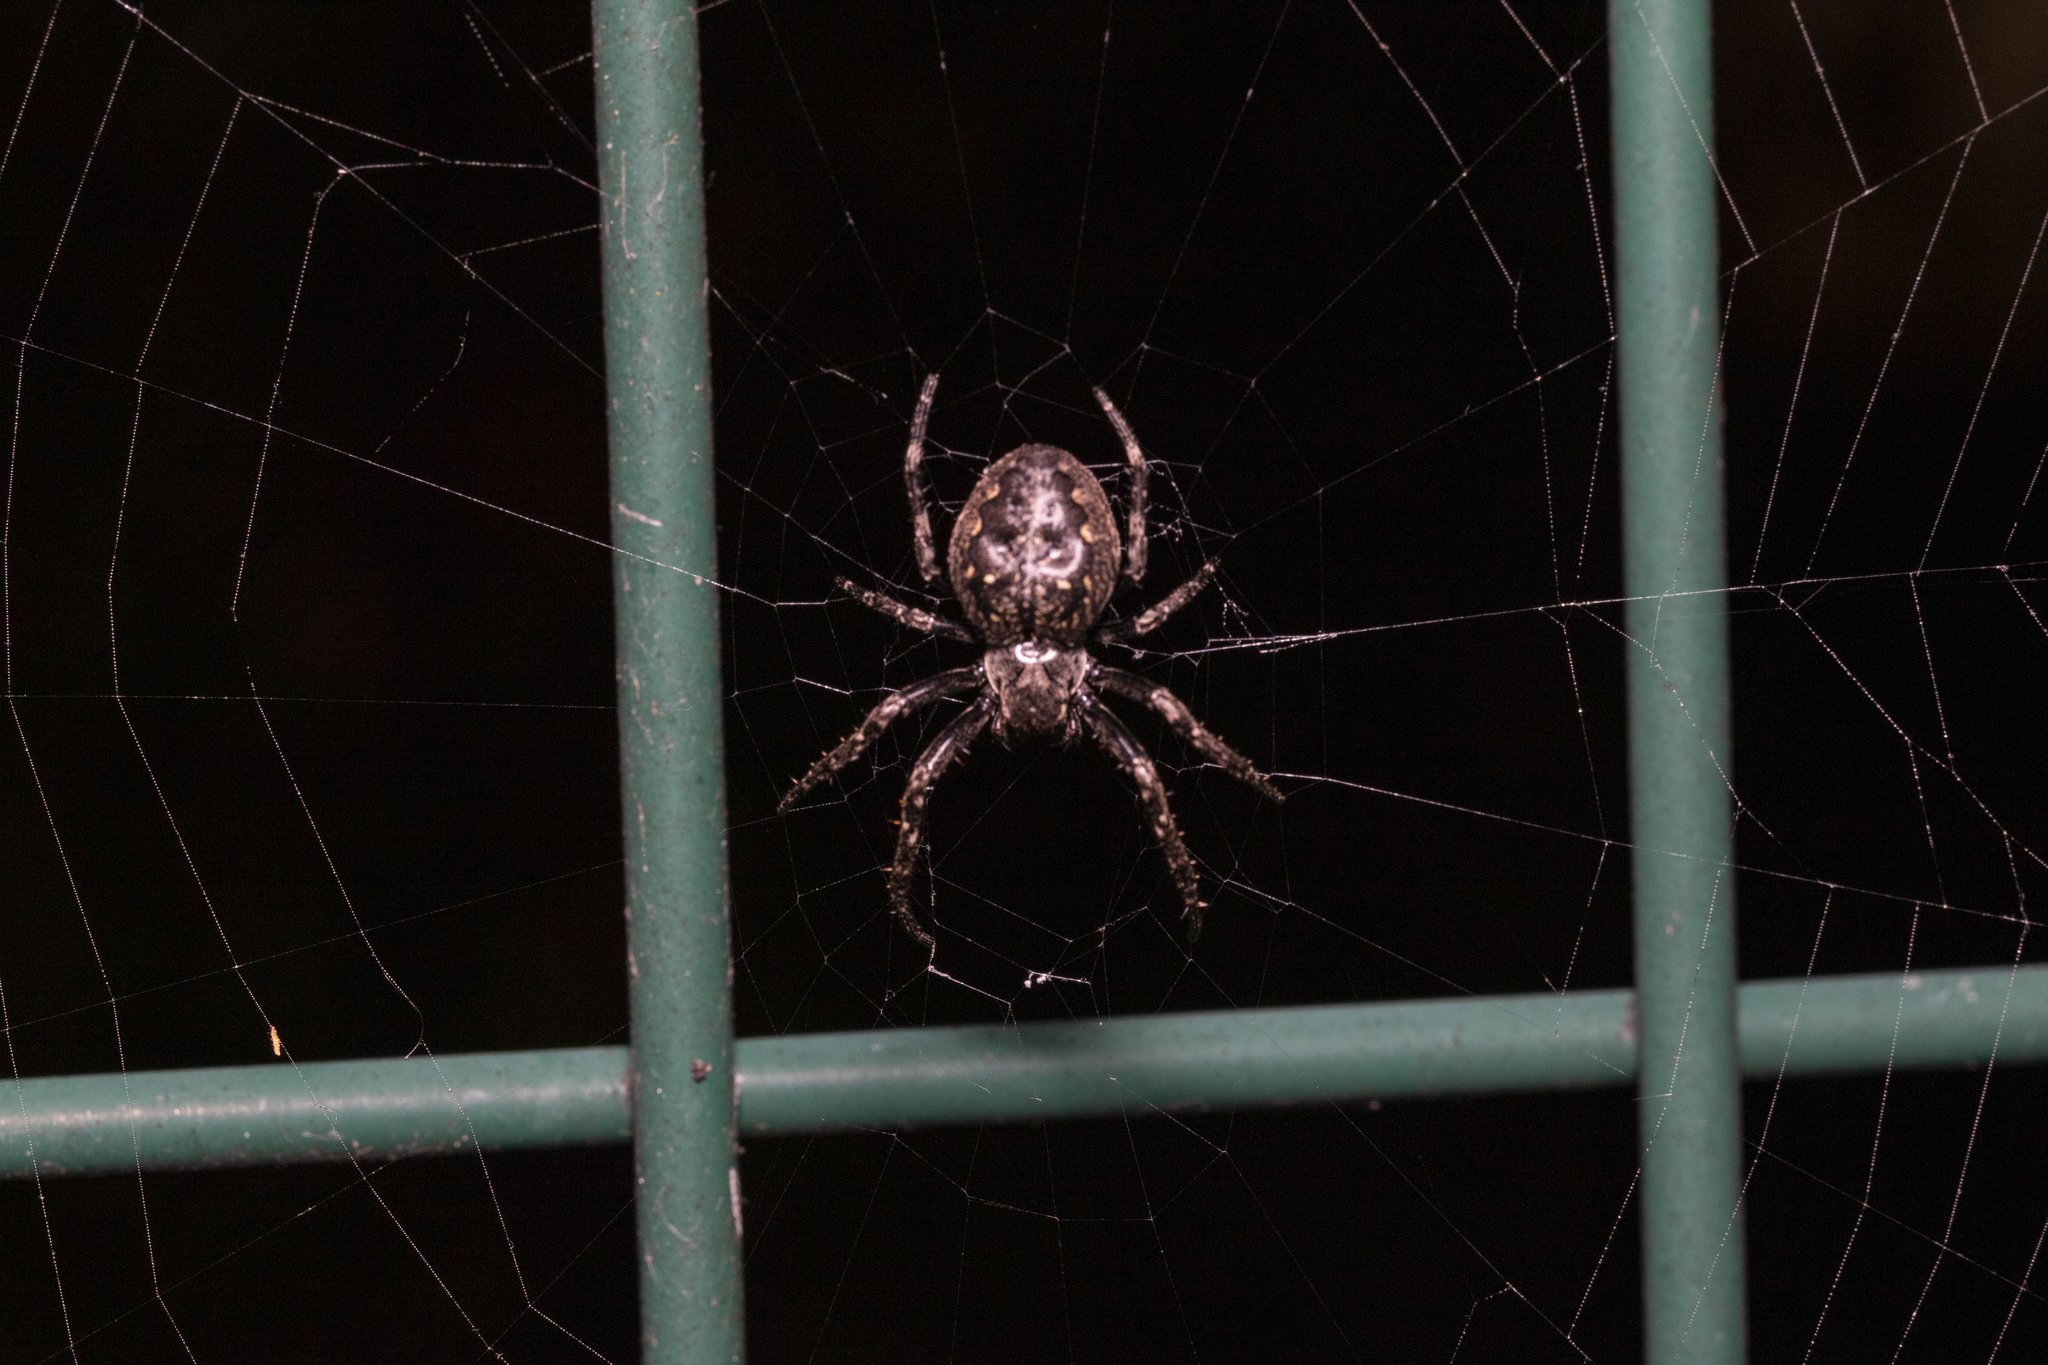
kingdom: Animalia
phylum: Arthropoda
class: Arachnida
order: Araneae
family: Araneidae
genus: Nuctenea
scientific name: Nuctenea umbratica
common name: Toad spider
